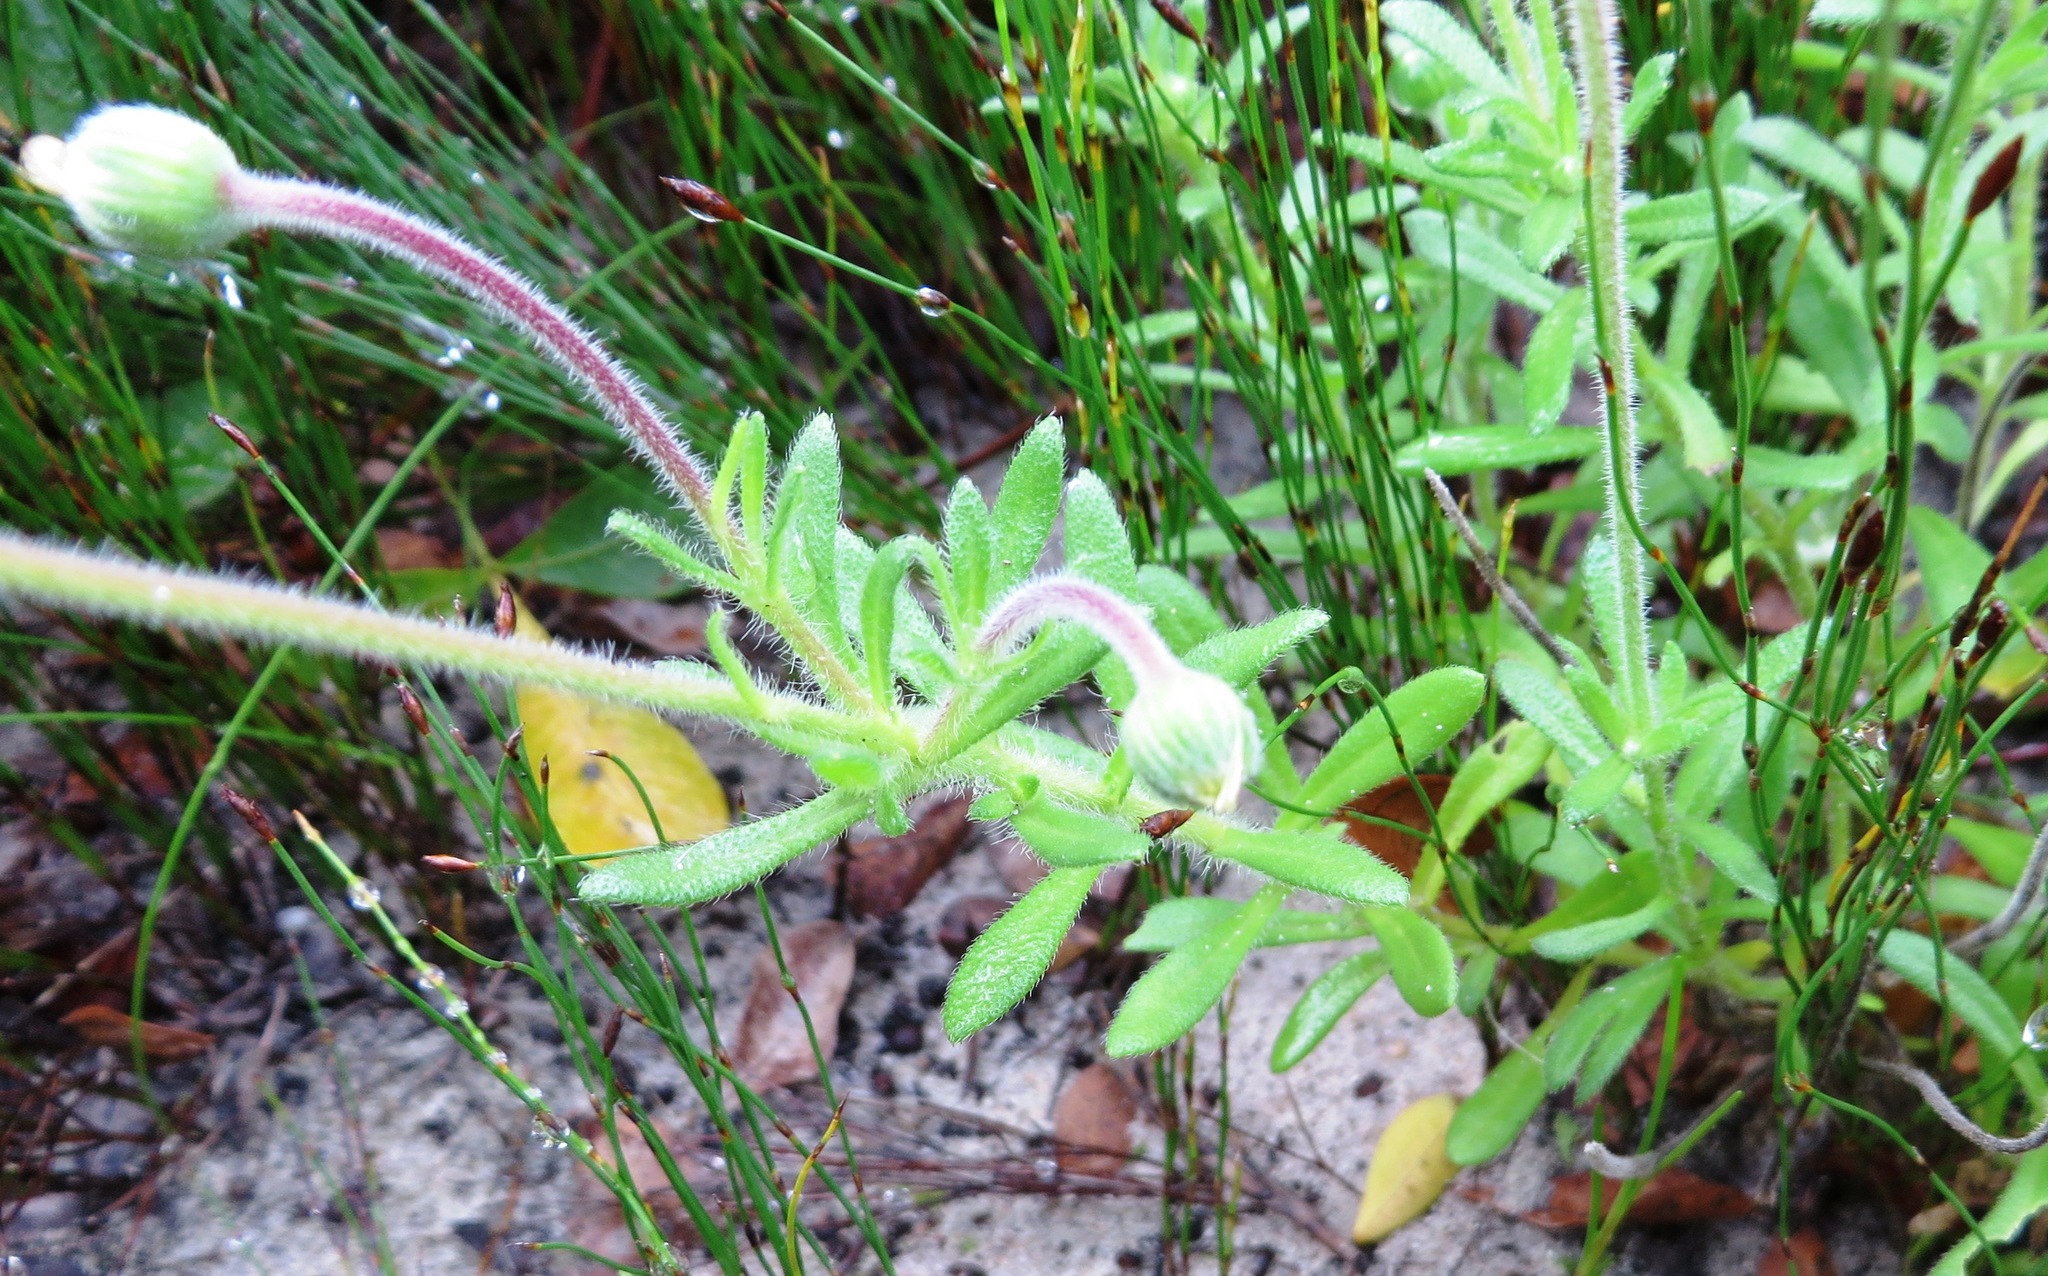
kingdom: Plantae
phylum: Tracheophyta
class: Magnoliopsida
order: Asterales
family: Asteraceae
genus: Felicia
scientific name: Felicia amoena
